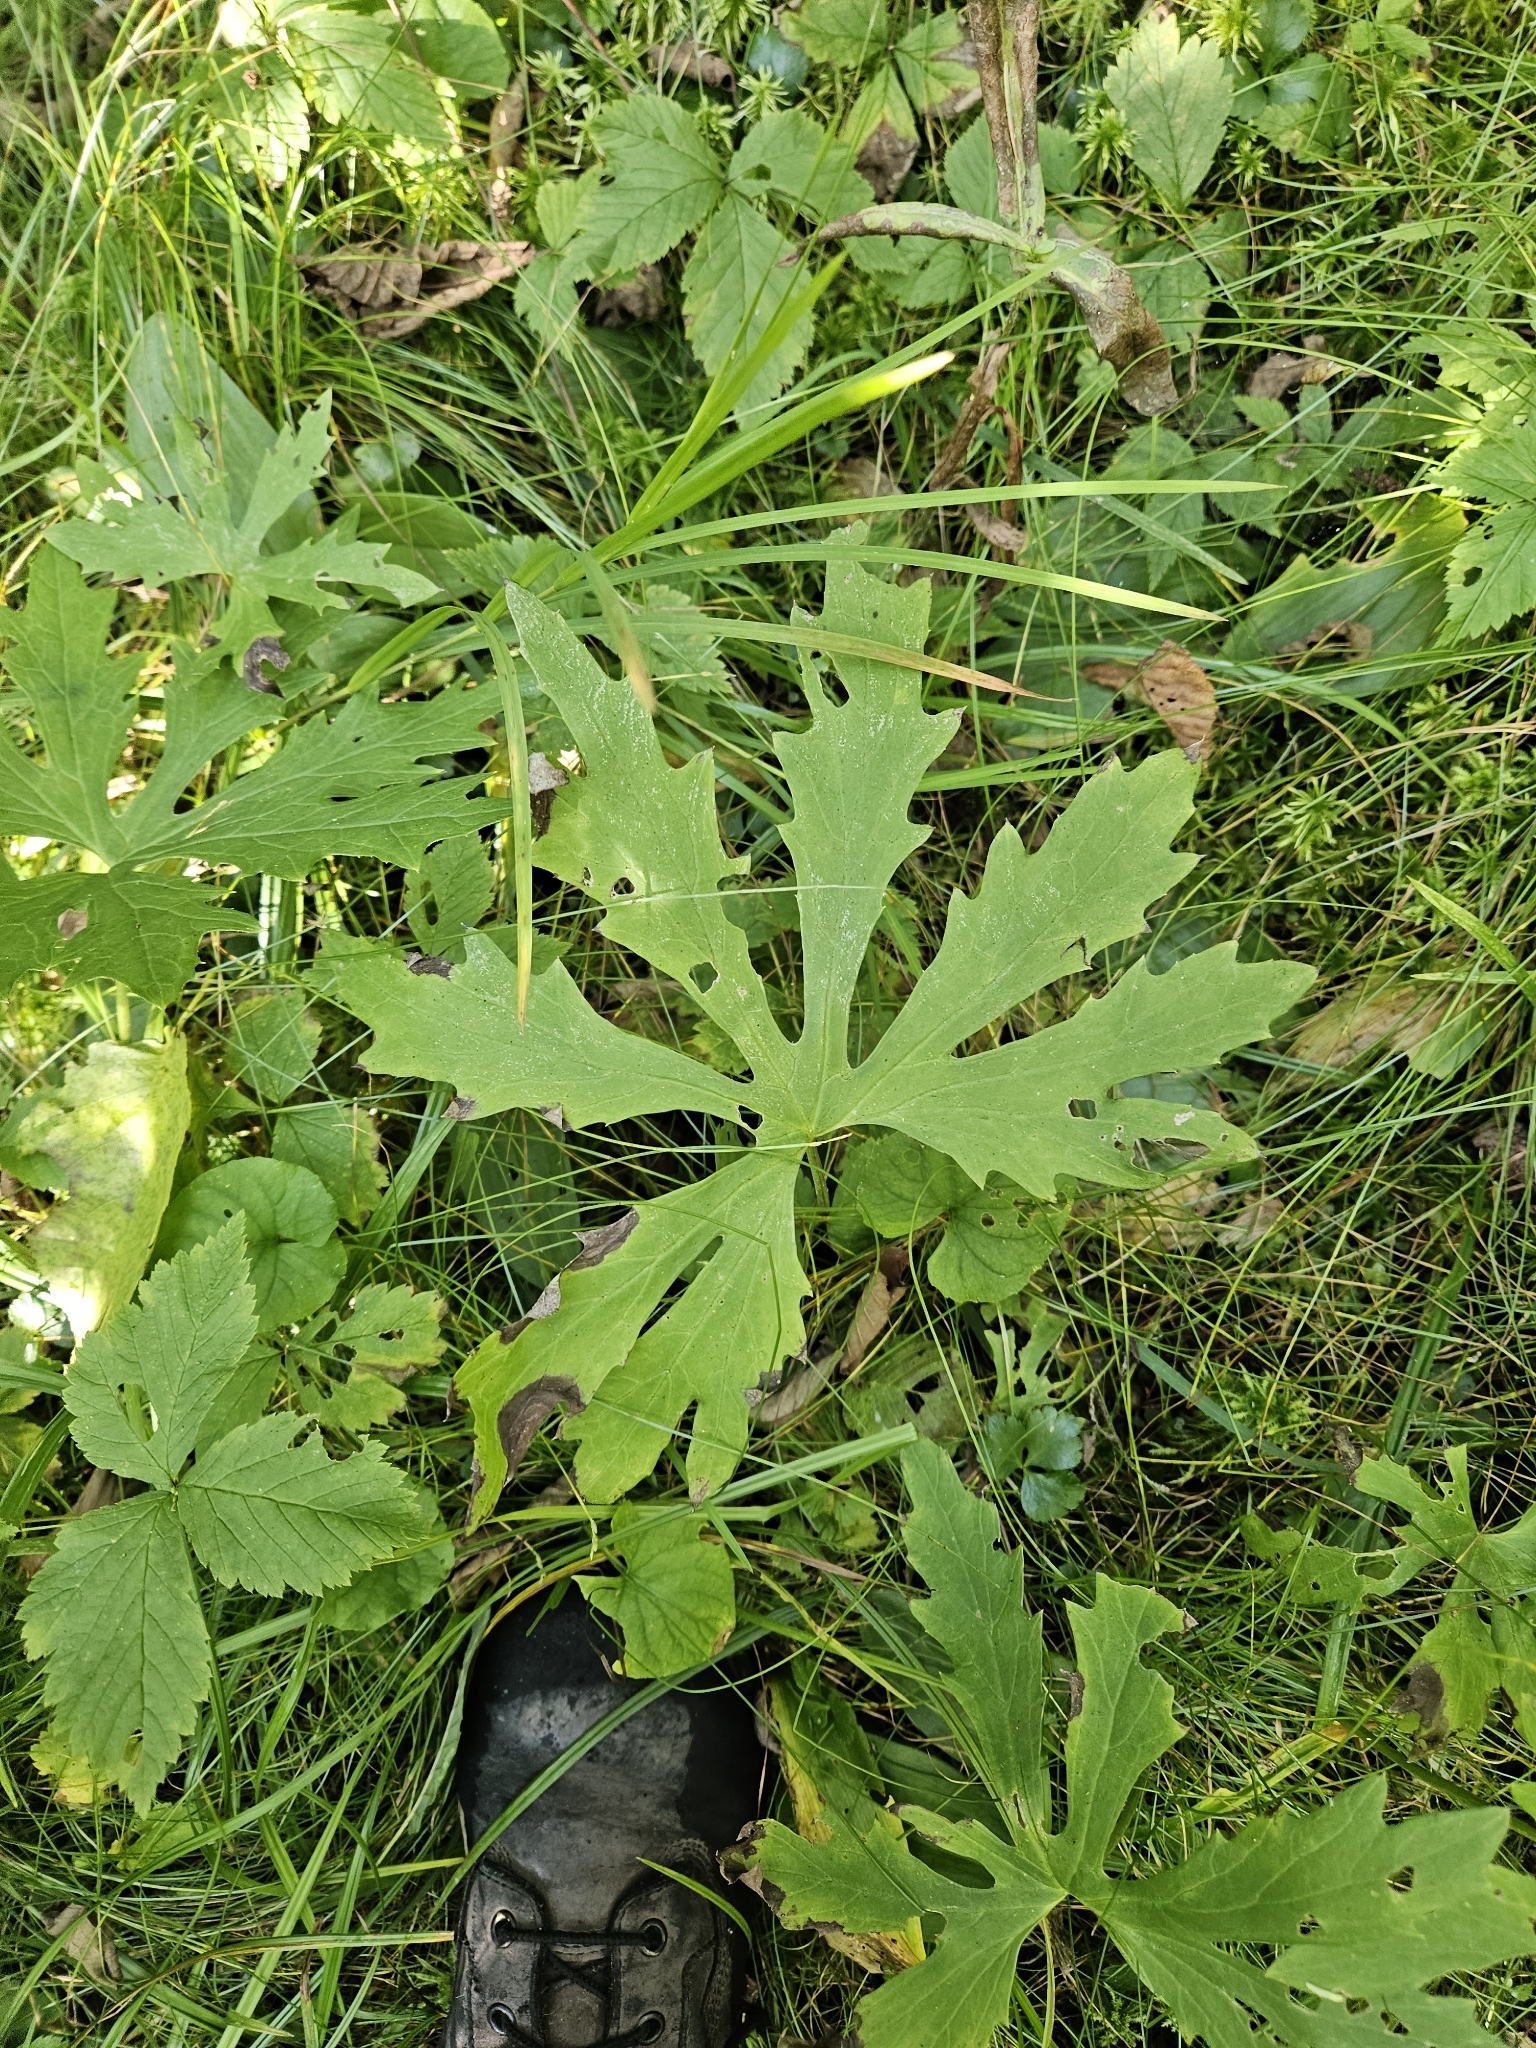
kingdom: Plantae
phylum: Tracheophyta
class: Magnoliopsida
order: Asterales
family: Asteraceae
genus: Petasites
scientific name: Petasites frigidus
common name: Arctic butterbur
